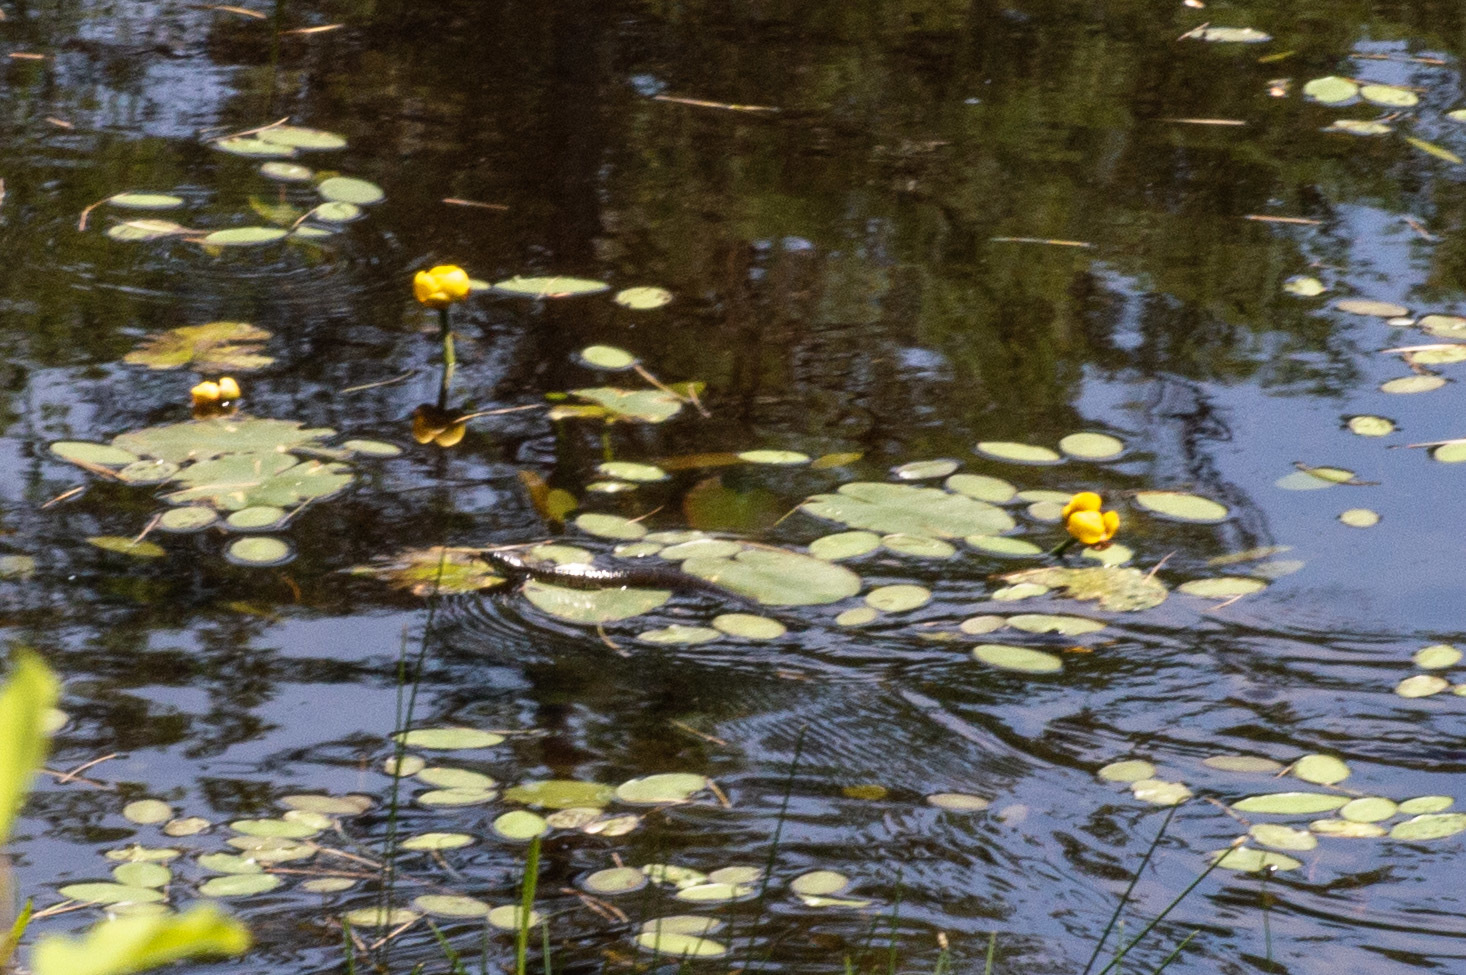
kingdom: Animalia
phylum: Chordata
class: Squamata
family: Colubridae
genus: Nerodia
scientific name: Nerodia sipedon
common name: Northern water snake
